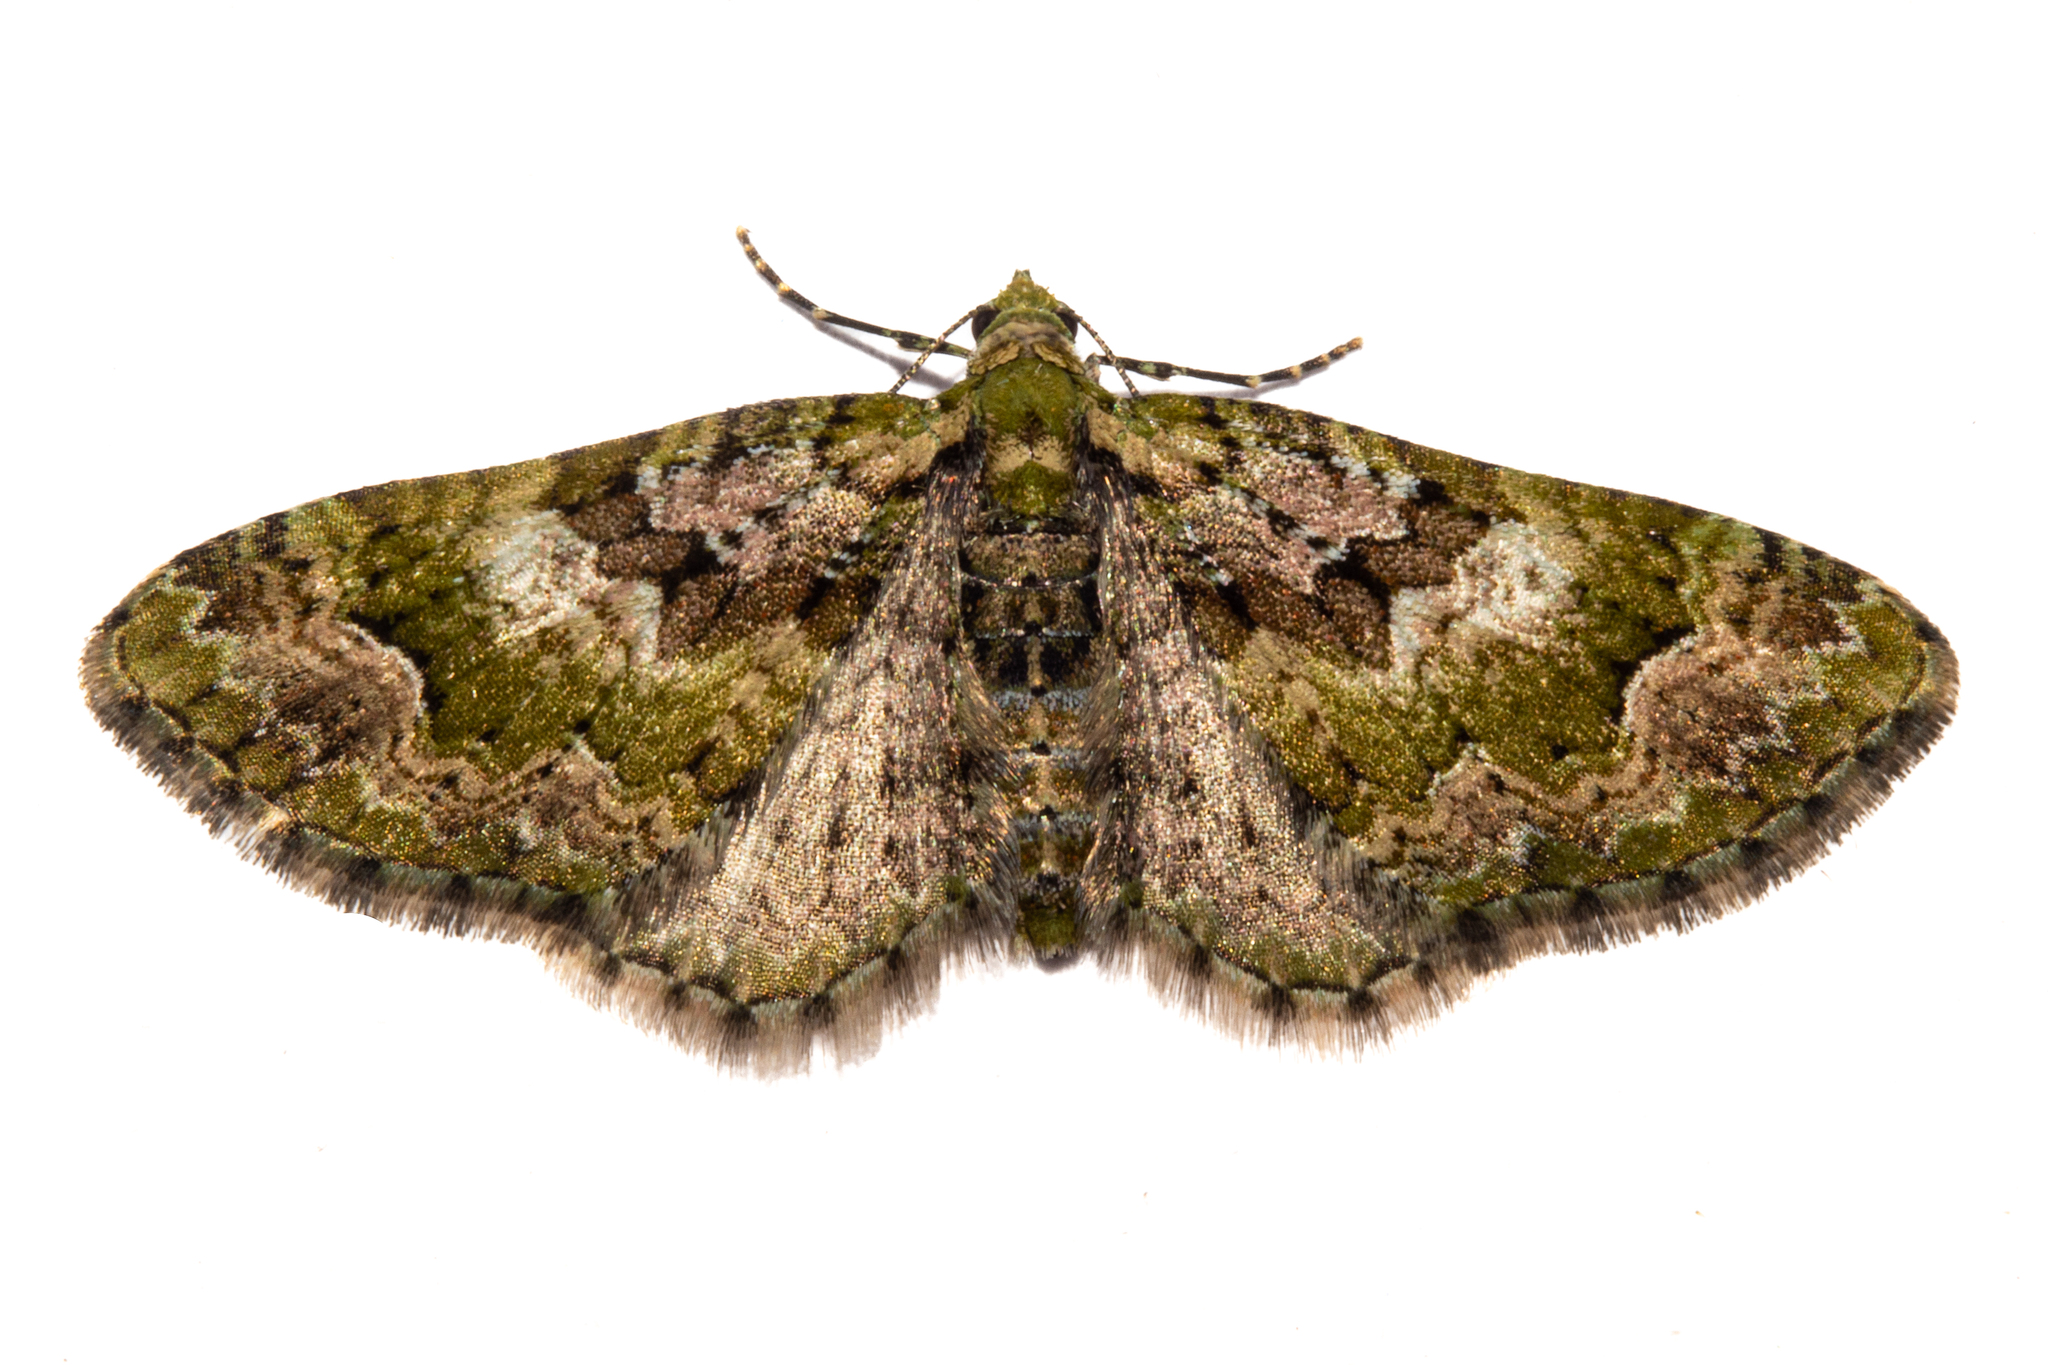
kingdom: Animalia
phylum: Arthropoda
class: Insecta
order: Lepidoptera
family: Geometridae
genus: Pasiphila
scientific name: Pasiphila punicea
